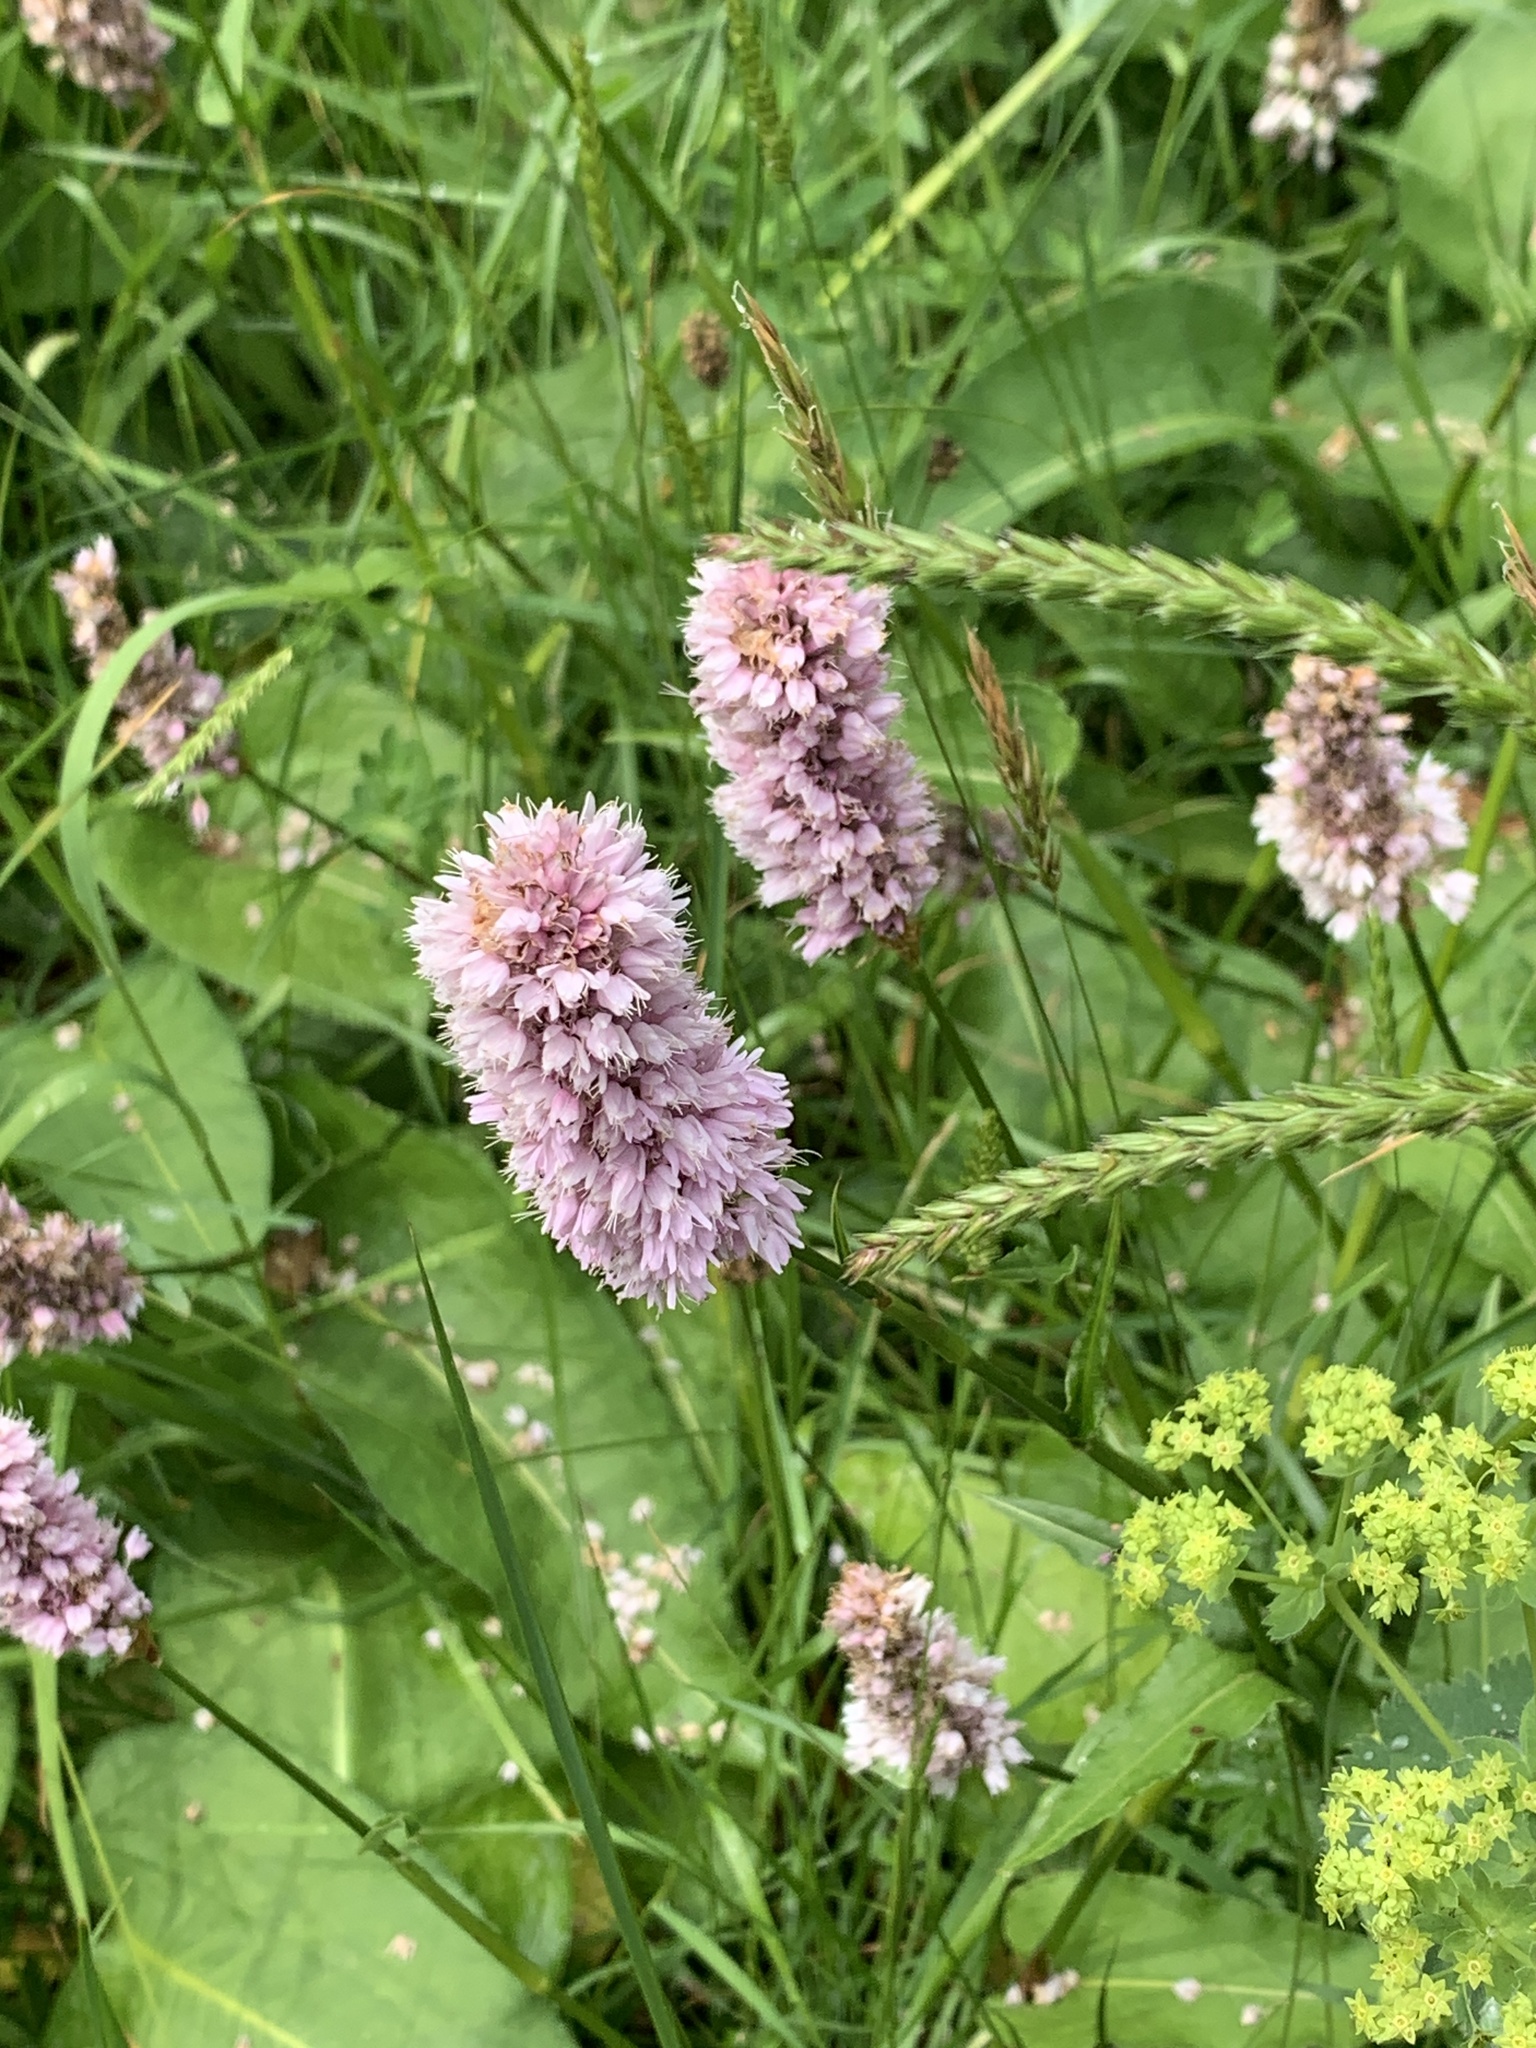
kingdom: Plantae
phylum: Tracheophyta
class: Magnoliopsida
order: Caryophyllales
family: Polygonaceae
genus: Bistorta
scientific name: Bistorta officinalis
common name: Common bistort
